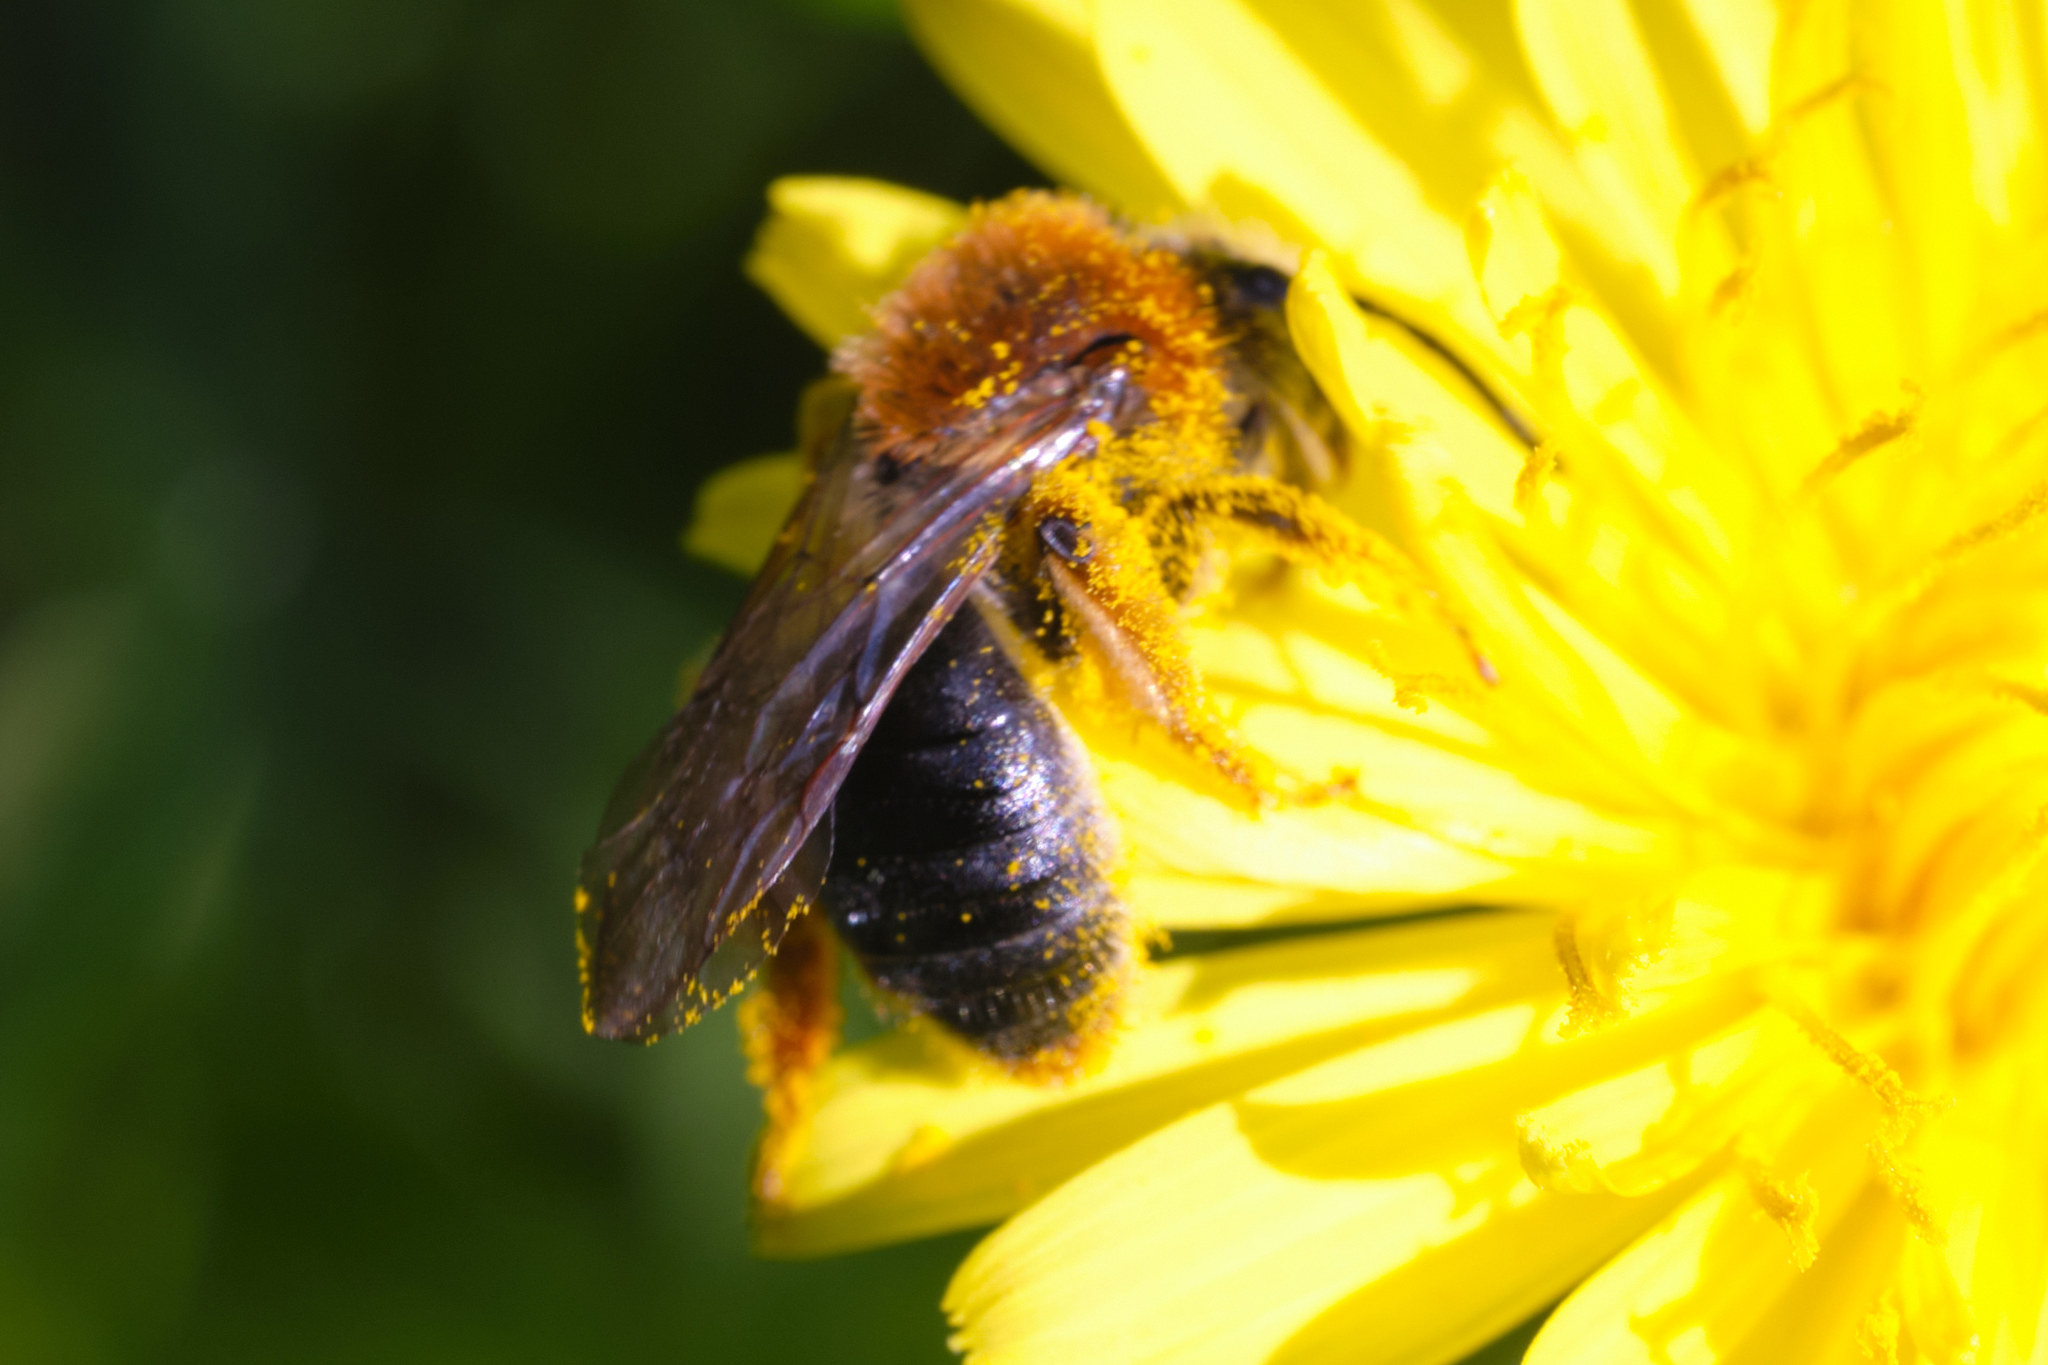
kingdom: Animalia
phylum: Arthropoda
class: Insecta
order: Hymenoptera
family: Andrenidae
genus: Andrena
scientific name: Andrena haemorrhoa
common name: Early mining bee
